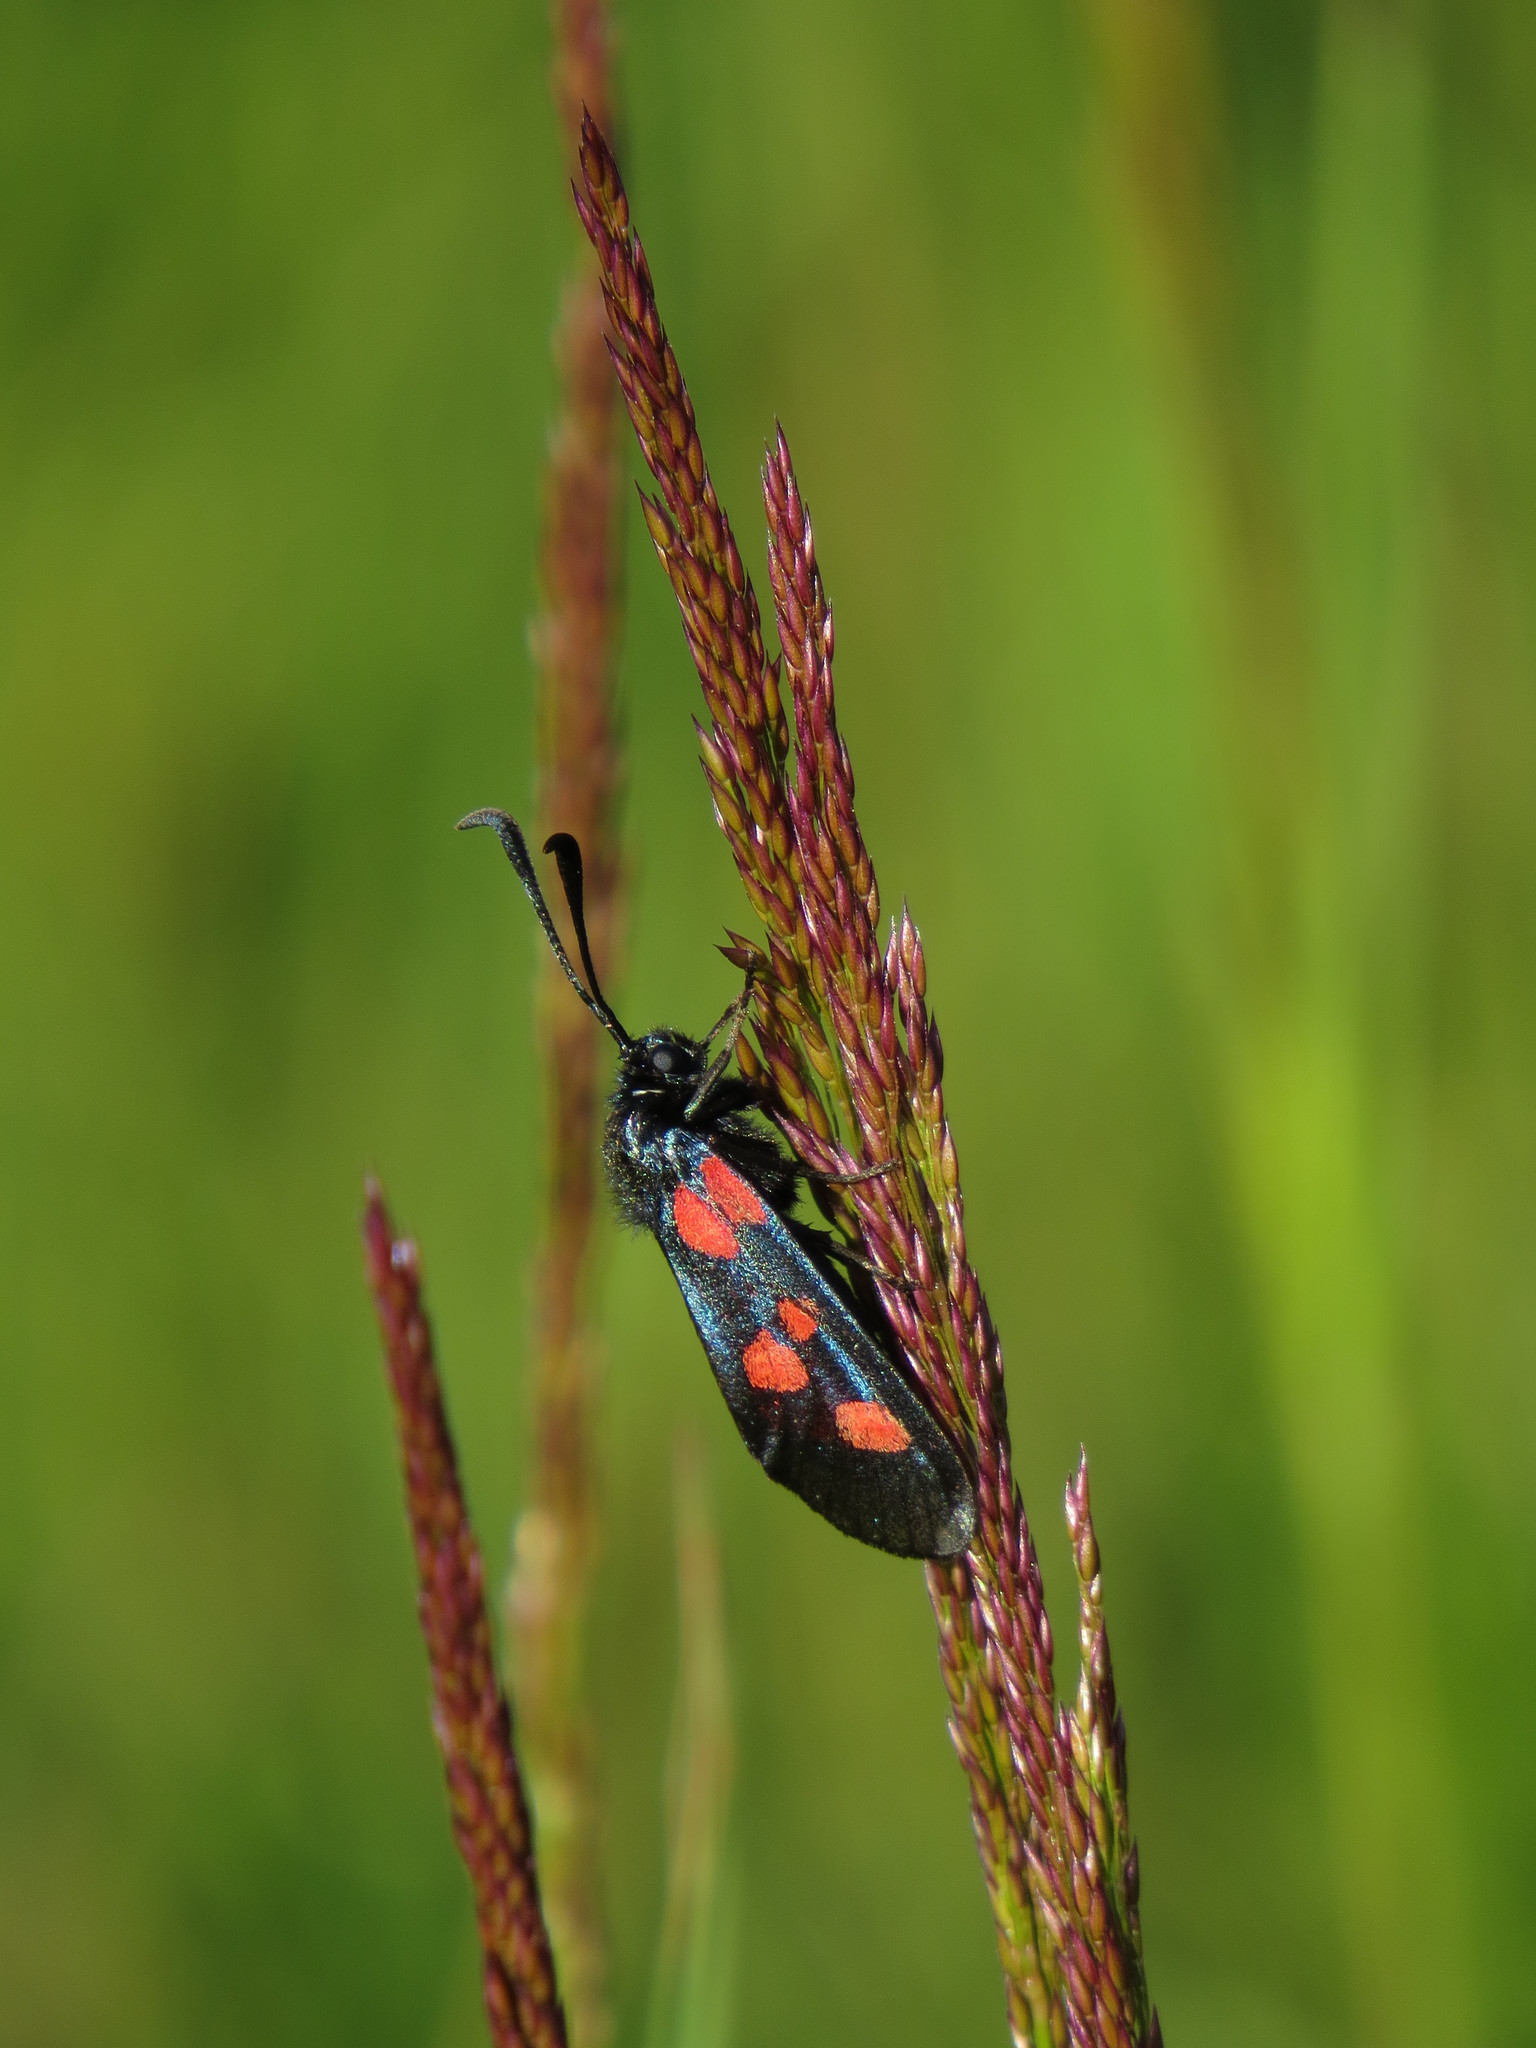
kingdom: Animalia
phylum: Arthropoda
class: Insecta
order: Lepidoptera
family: Zygaenidae
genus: Zygaena
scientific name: Zygaena trifolii
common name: Five-spot burnet
